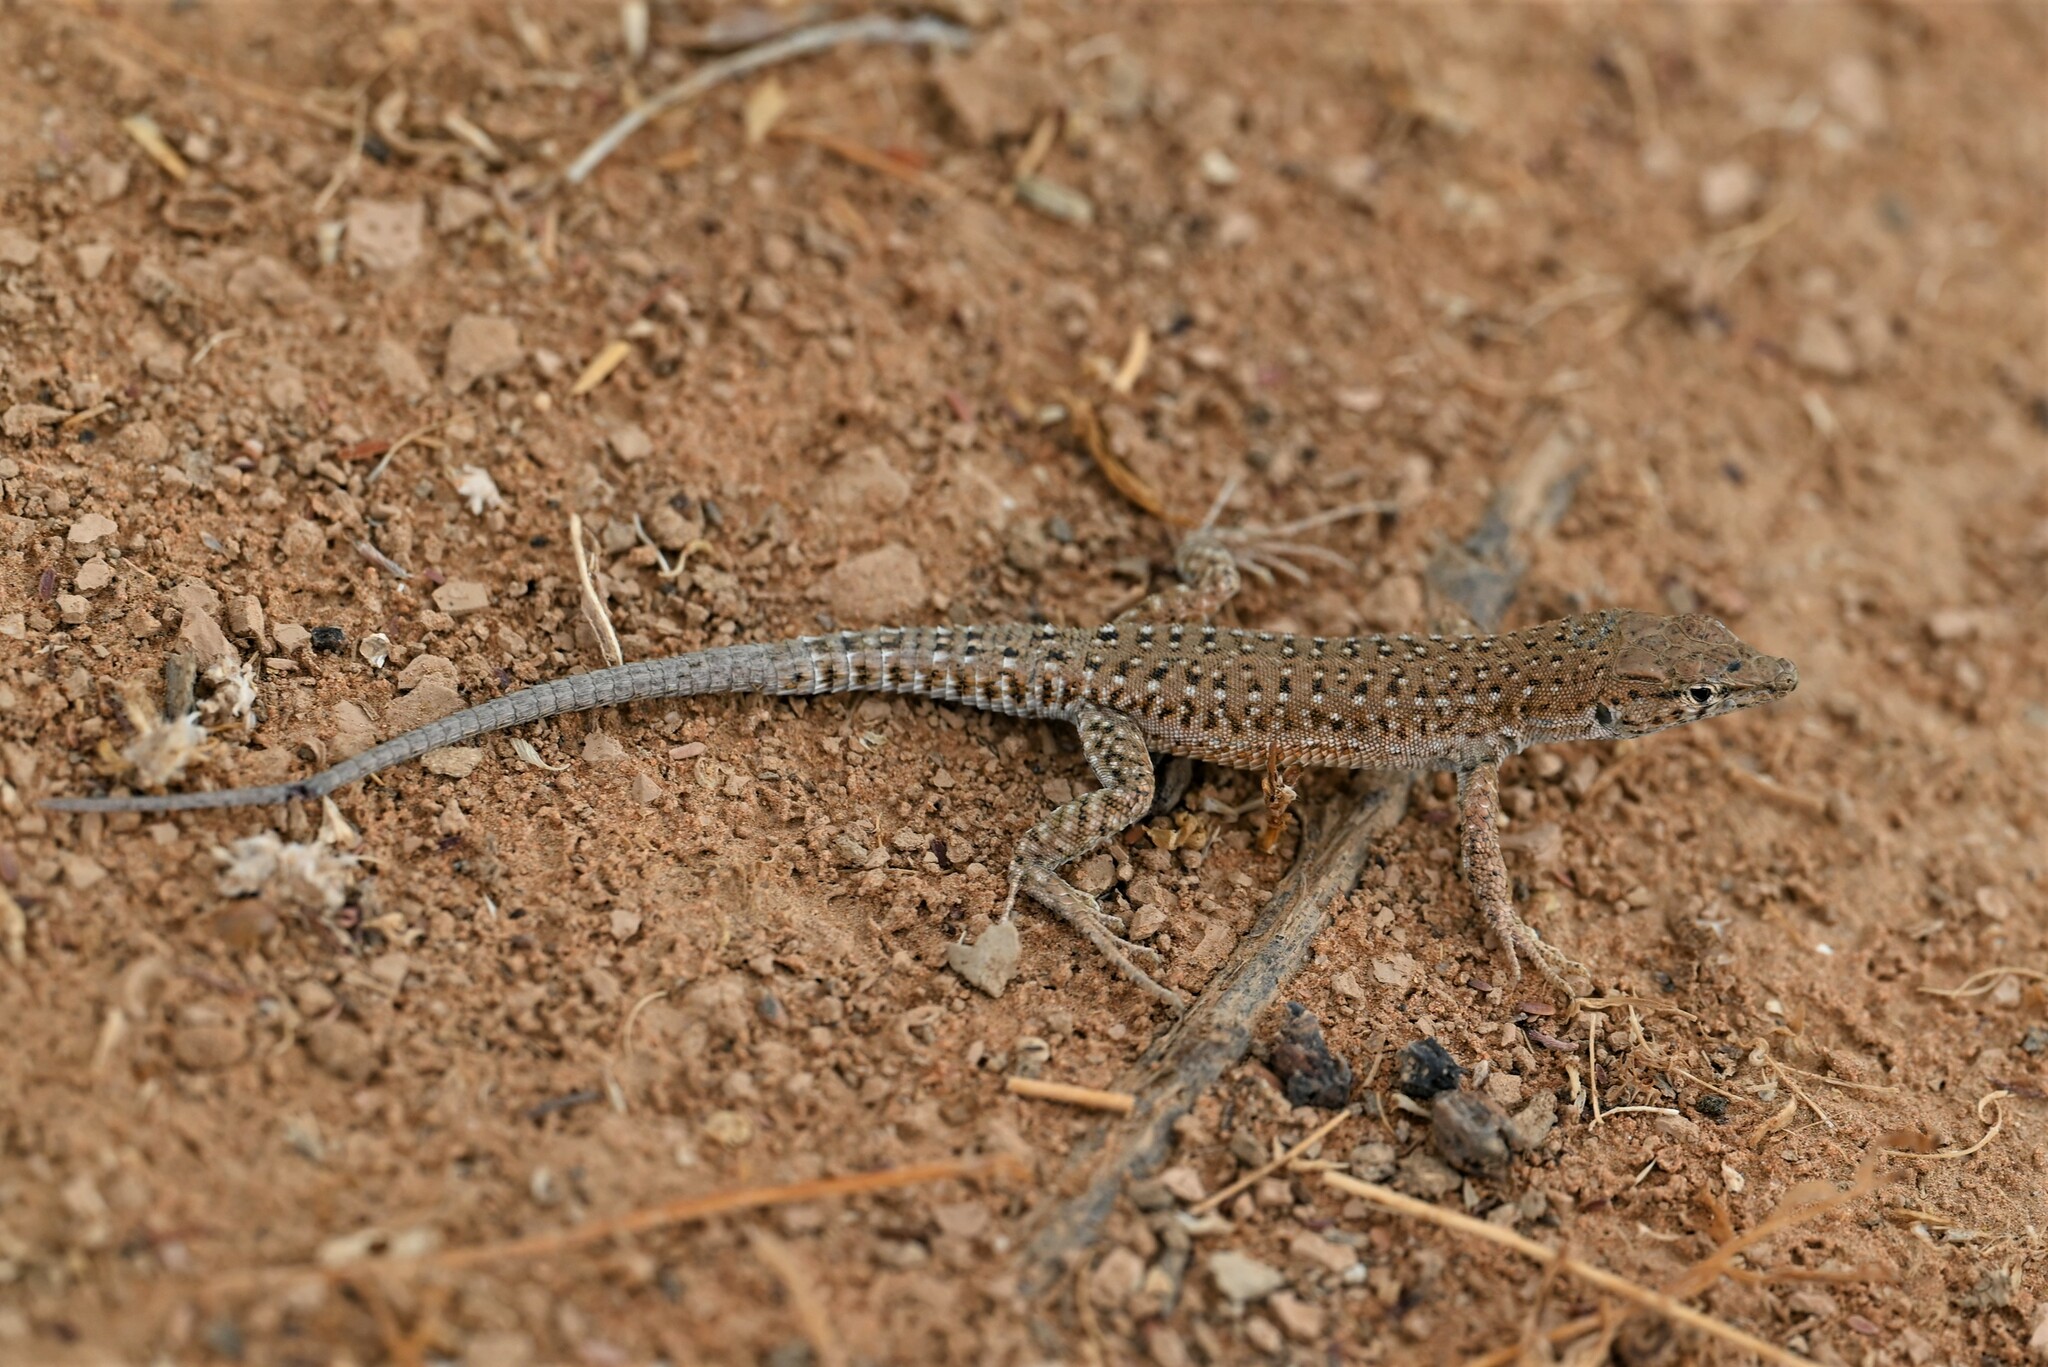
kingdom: Animalia
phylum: Chordata
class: Squamata
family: Lacertidae
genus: Mesalina
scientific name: Mesalina guttulata
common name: Desert lacerta
